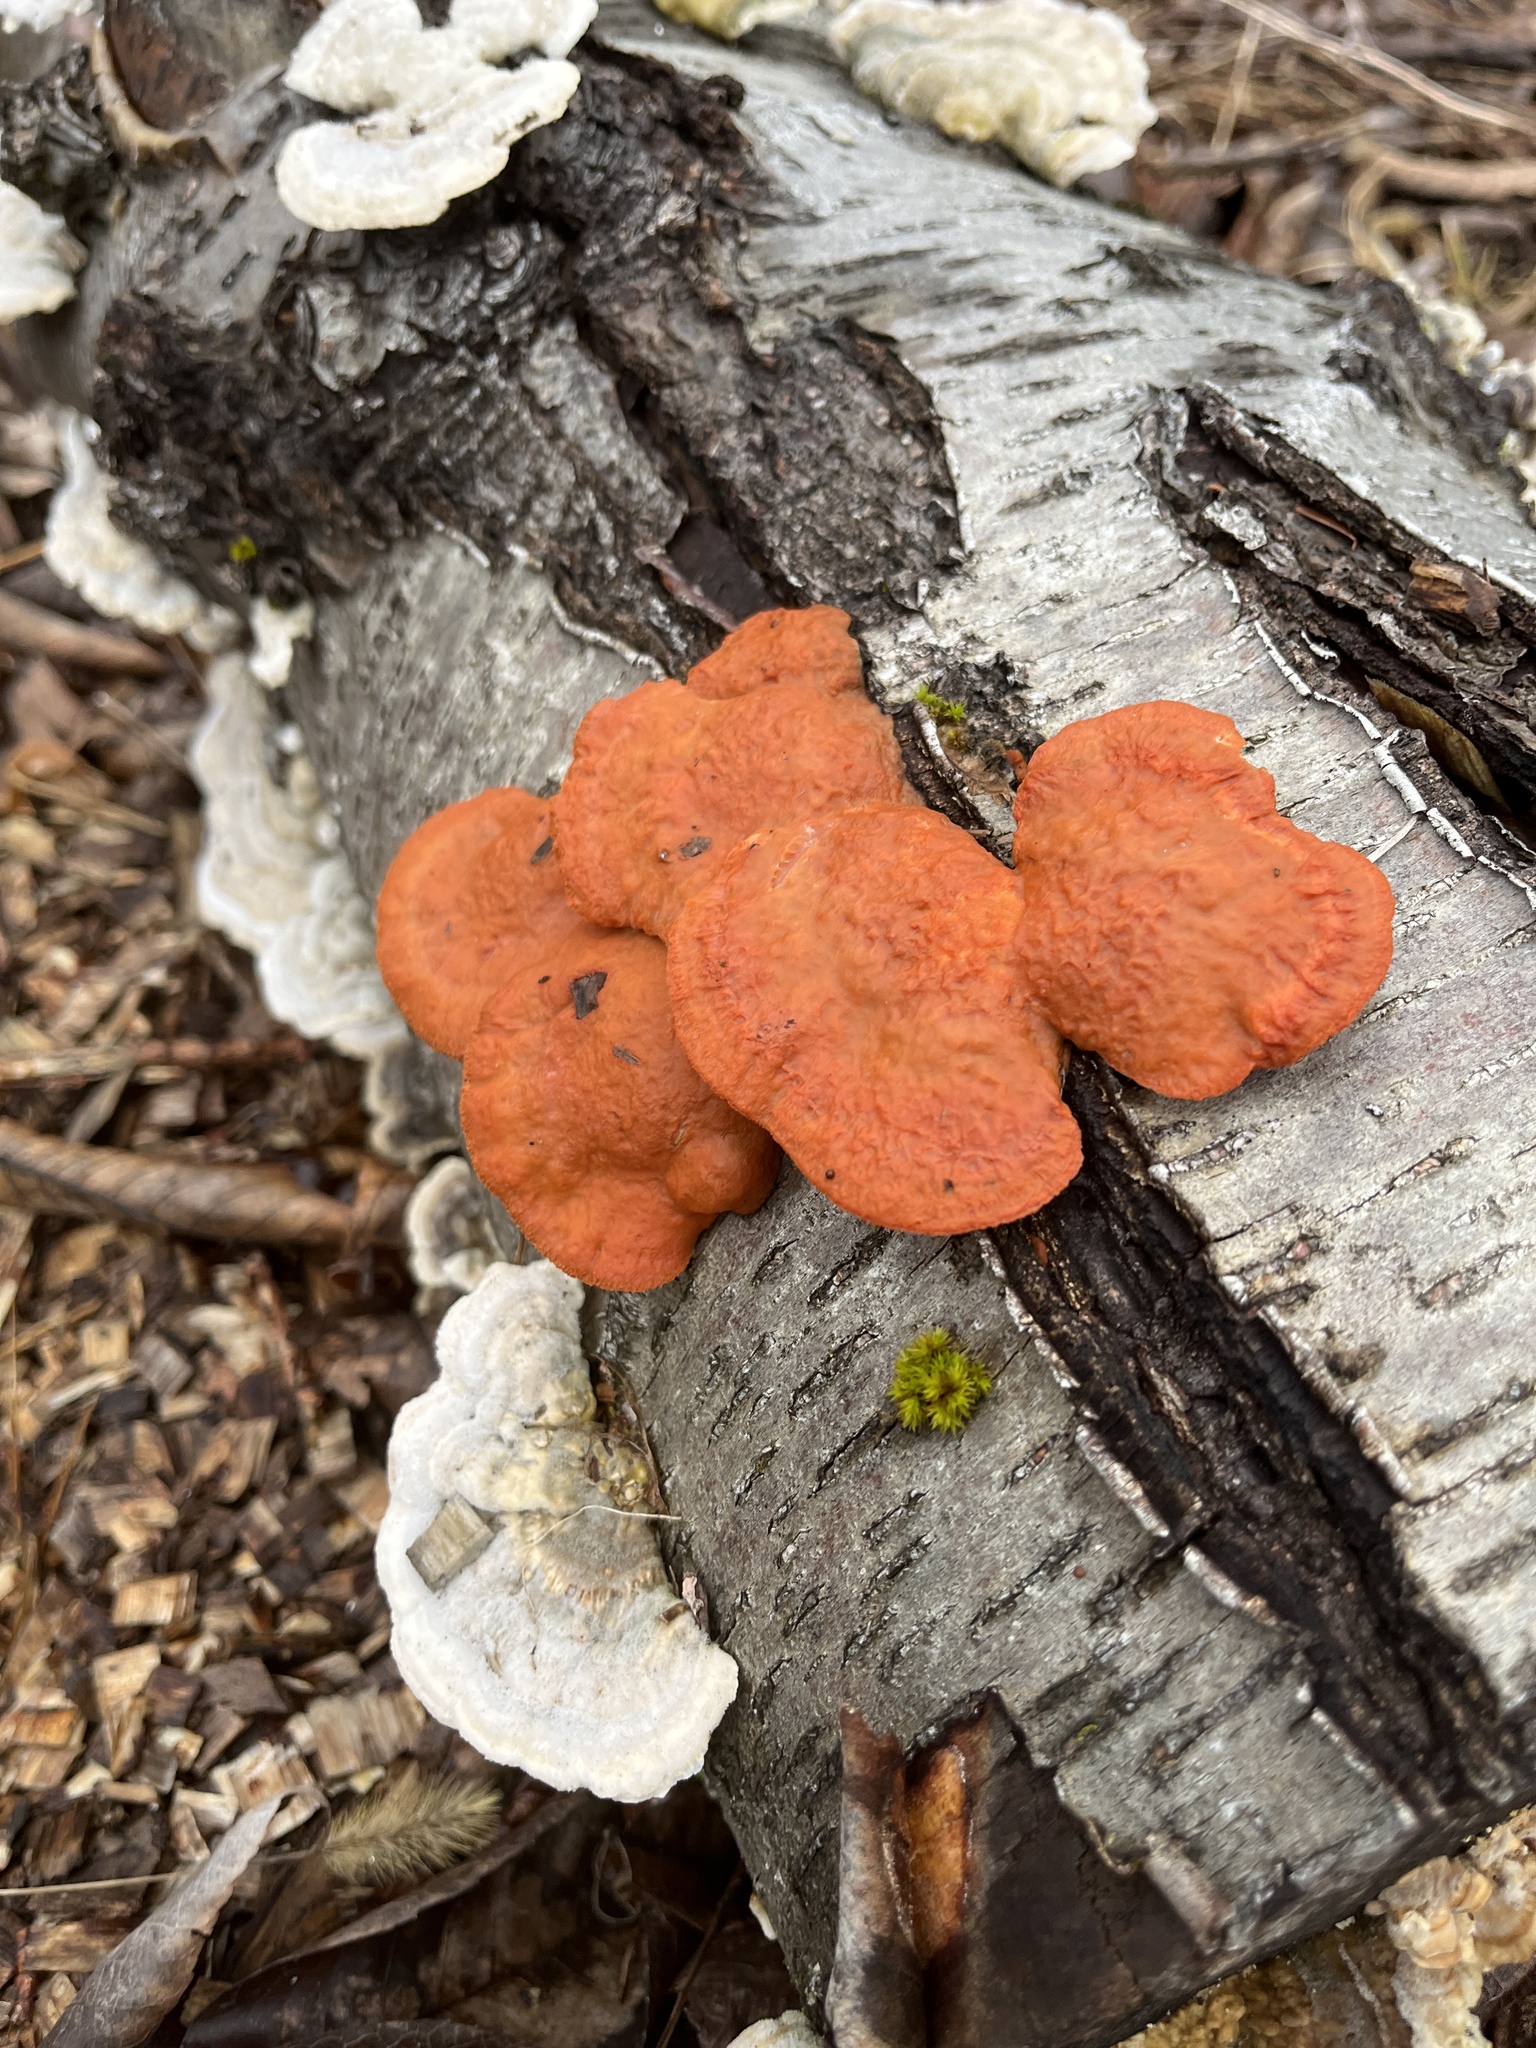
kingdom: Fungi
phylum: Basidiomycota
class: Agaricomycetes
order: Polyporales
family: Polyporaceae
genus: Trametes
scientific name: Trametes cinnabarina
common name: Northern cinnabar polypore
